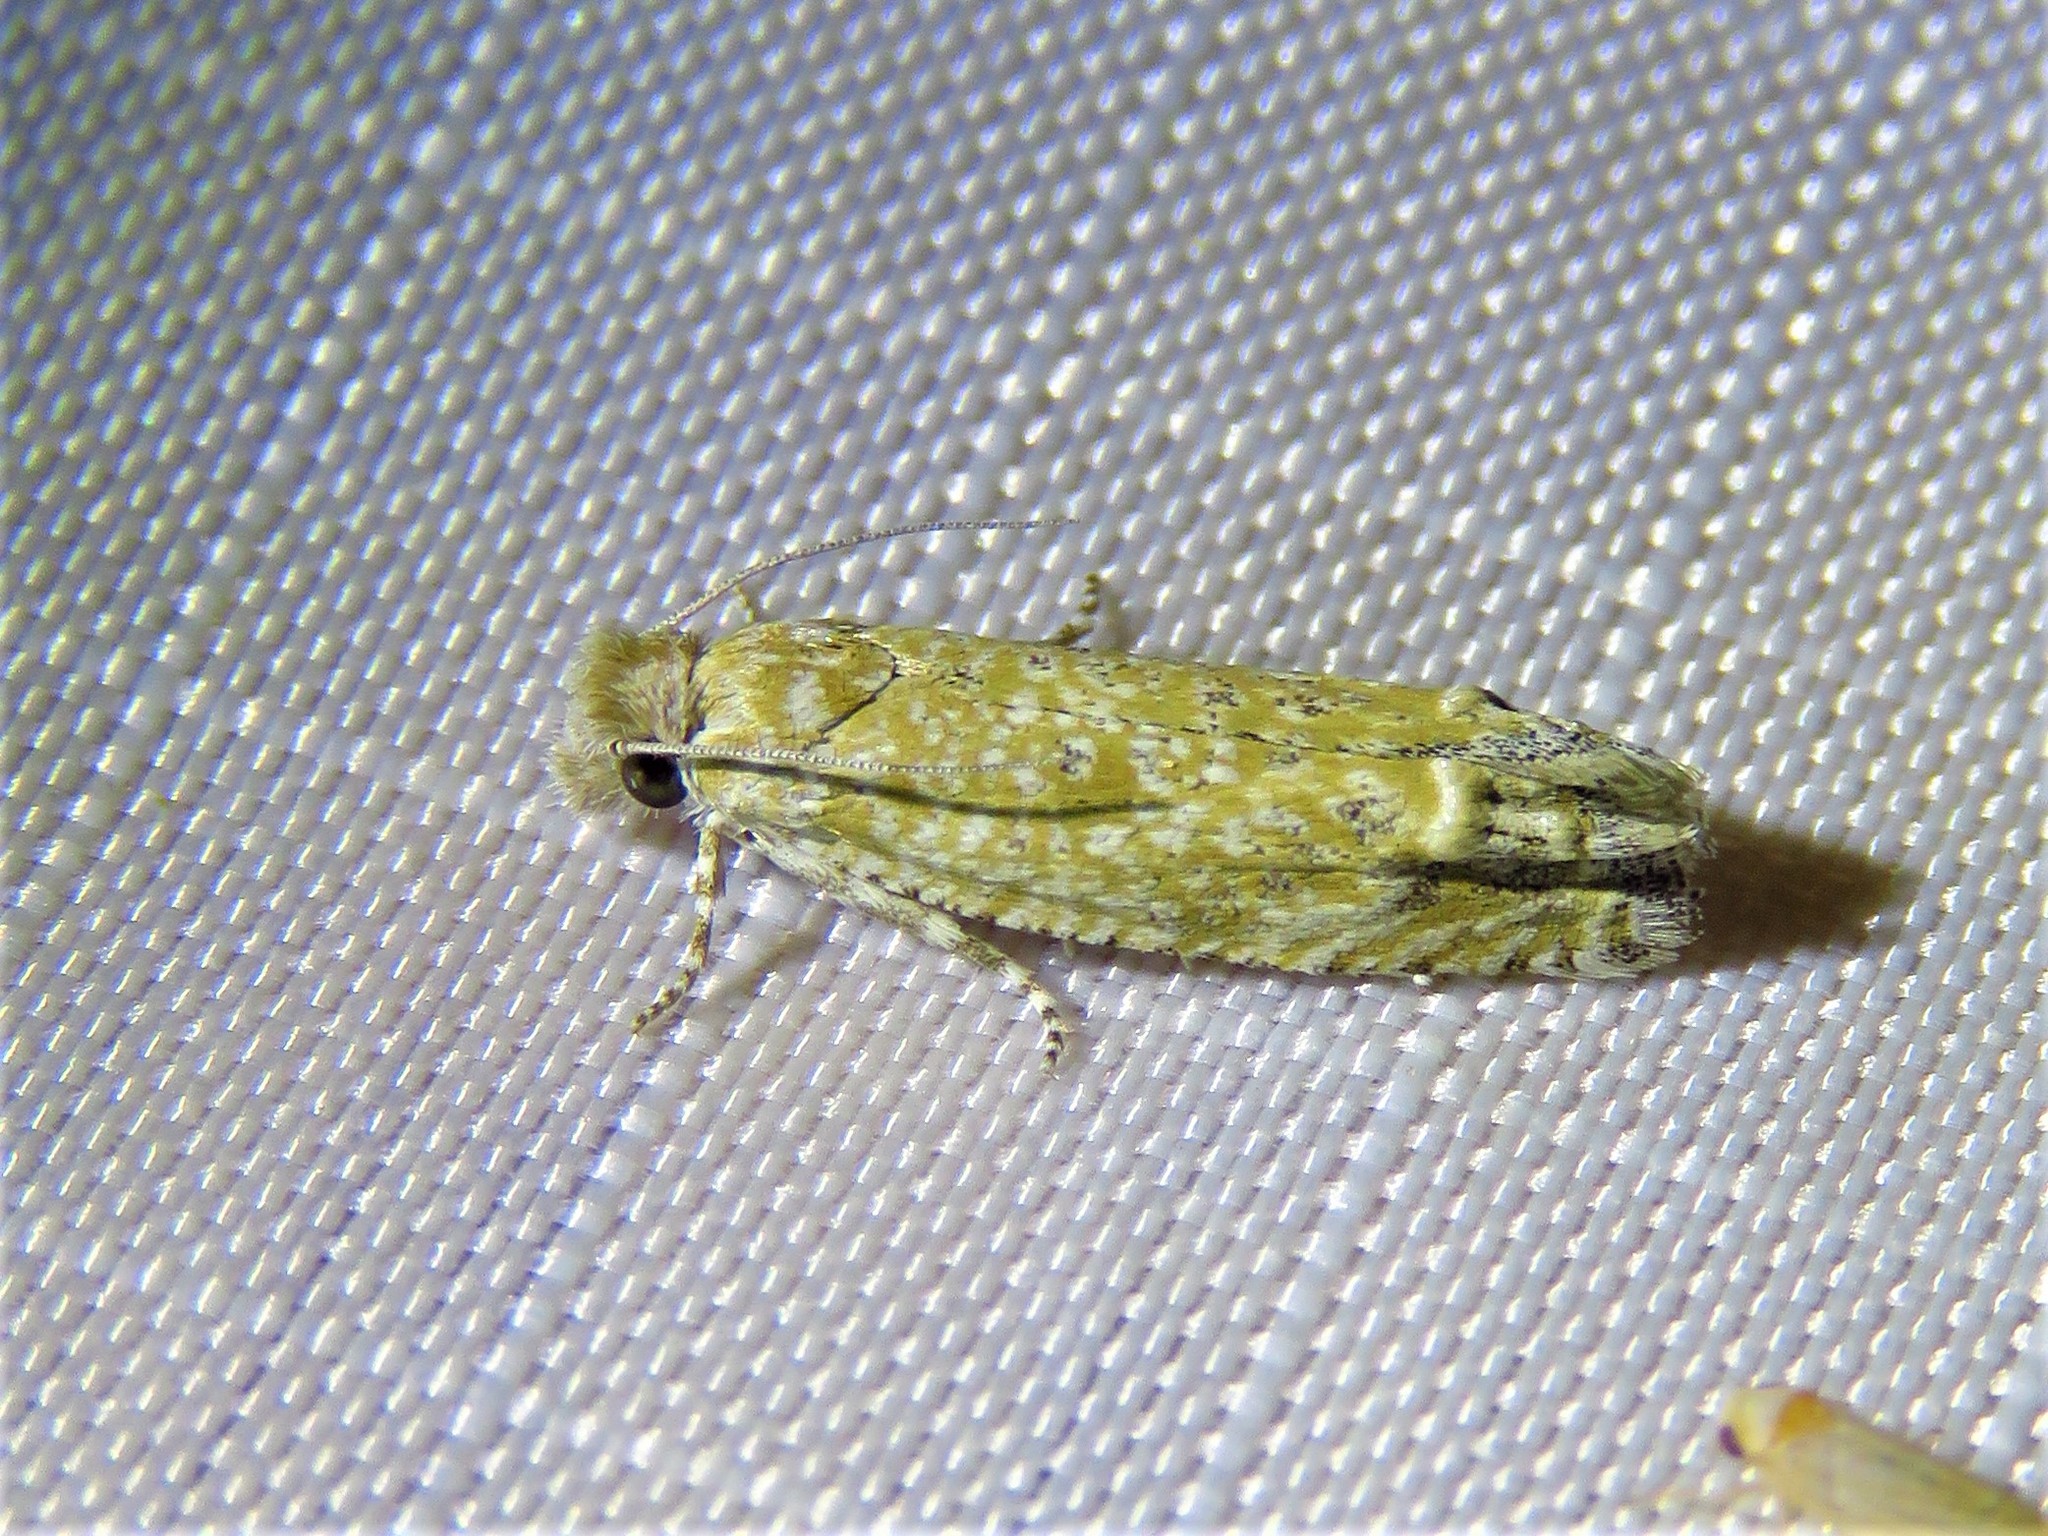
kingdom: Animalia
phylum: Arthropoda
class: Insecta
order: Lepidoptera
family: Tortricidae
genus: Pelochrista
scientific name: Pelochrista comatulana
